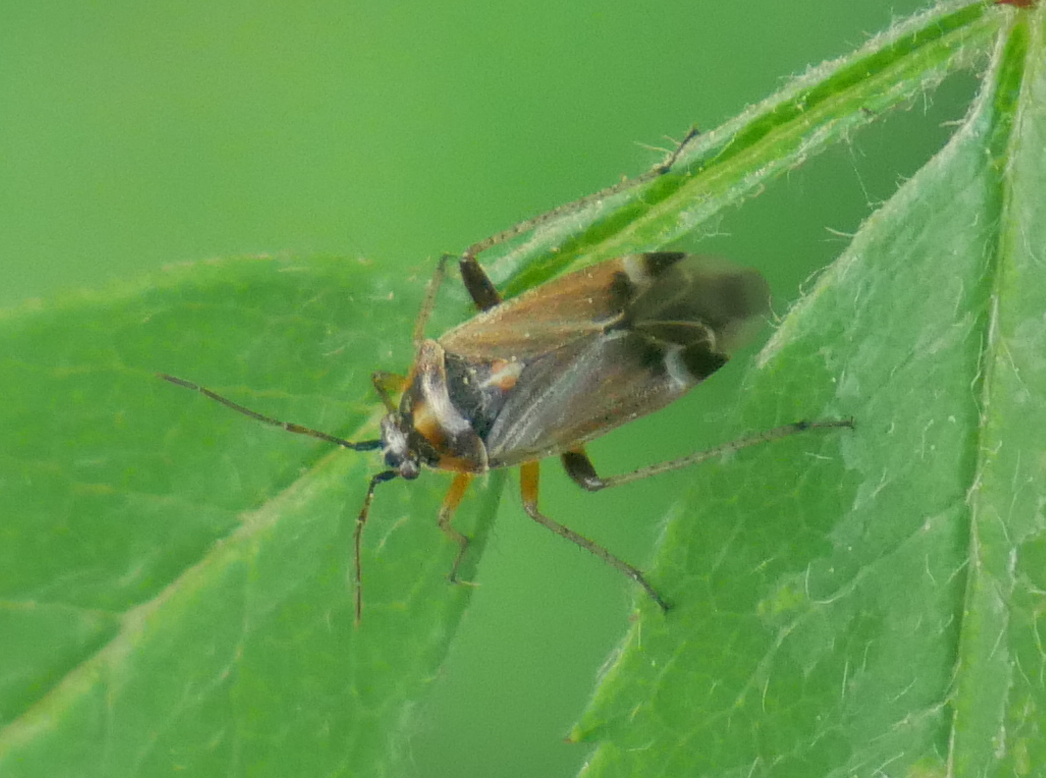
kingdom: Animalia
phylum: Arthropoda
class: Insecta
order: Hemiptera
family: Miridae
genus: Harpocera
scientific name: Harpocera thoracica
